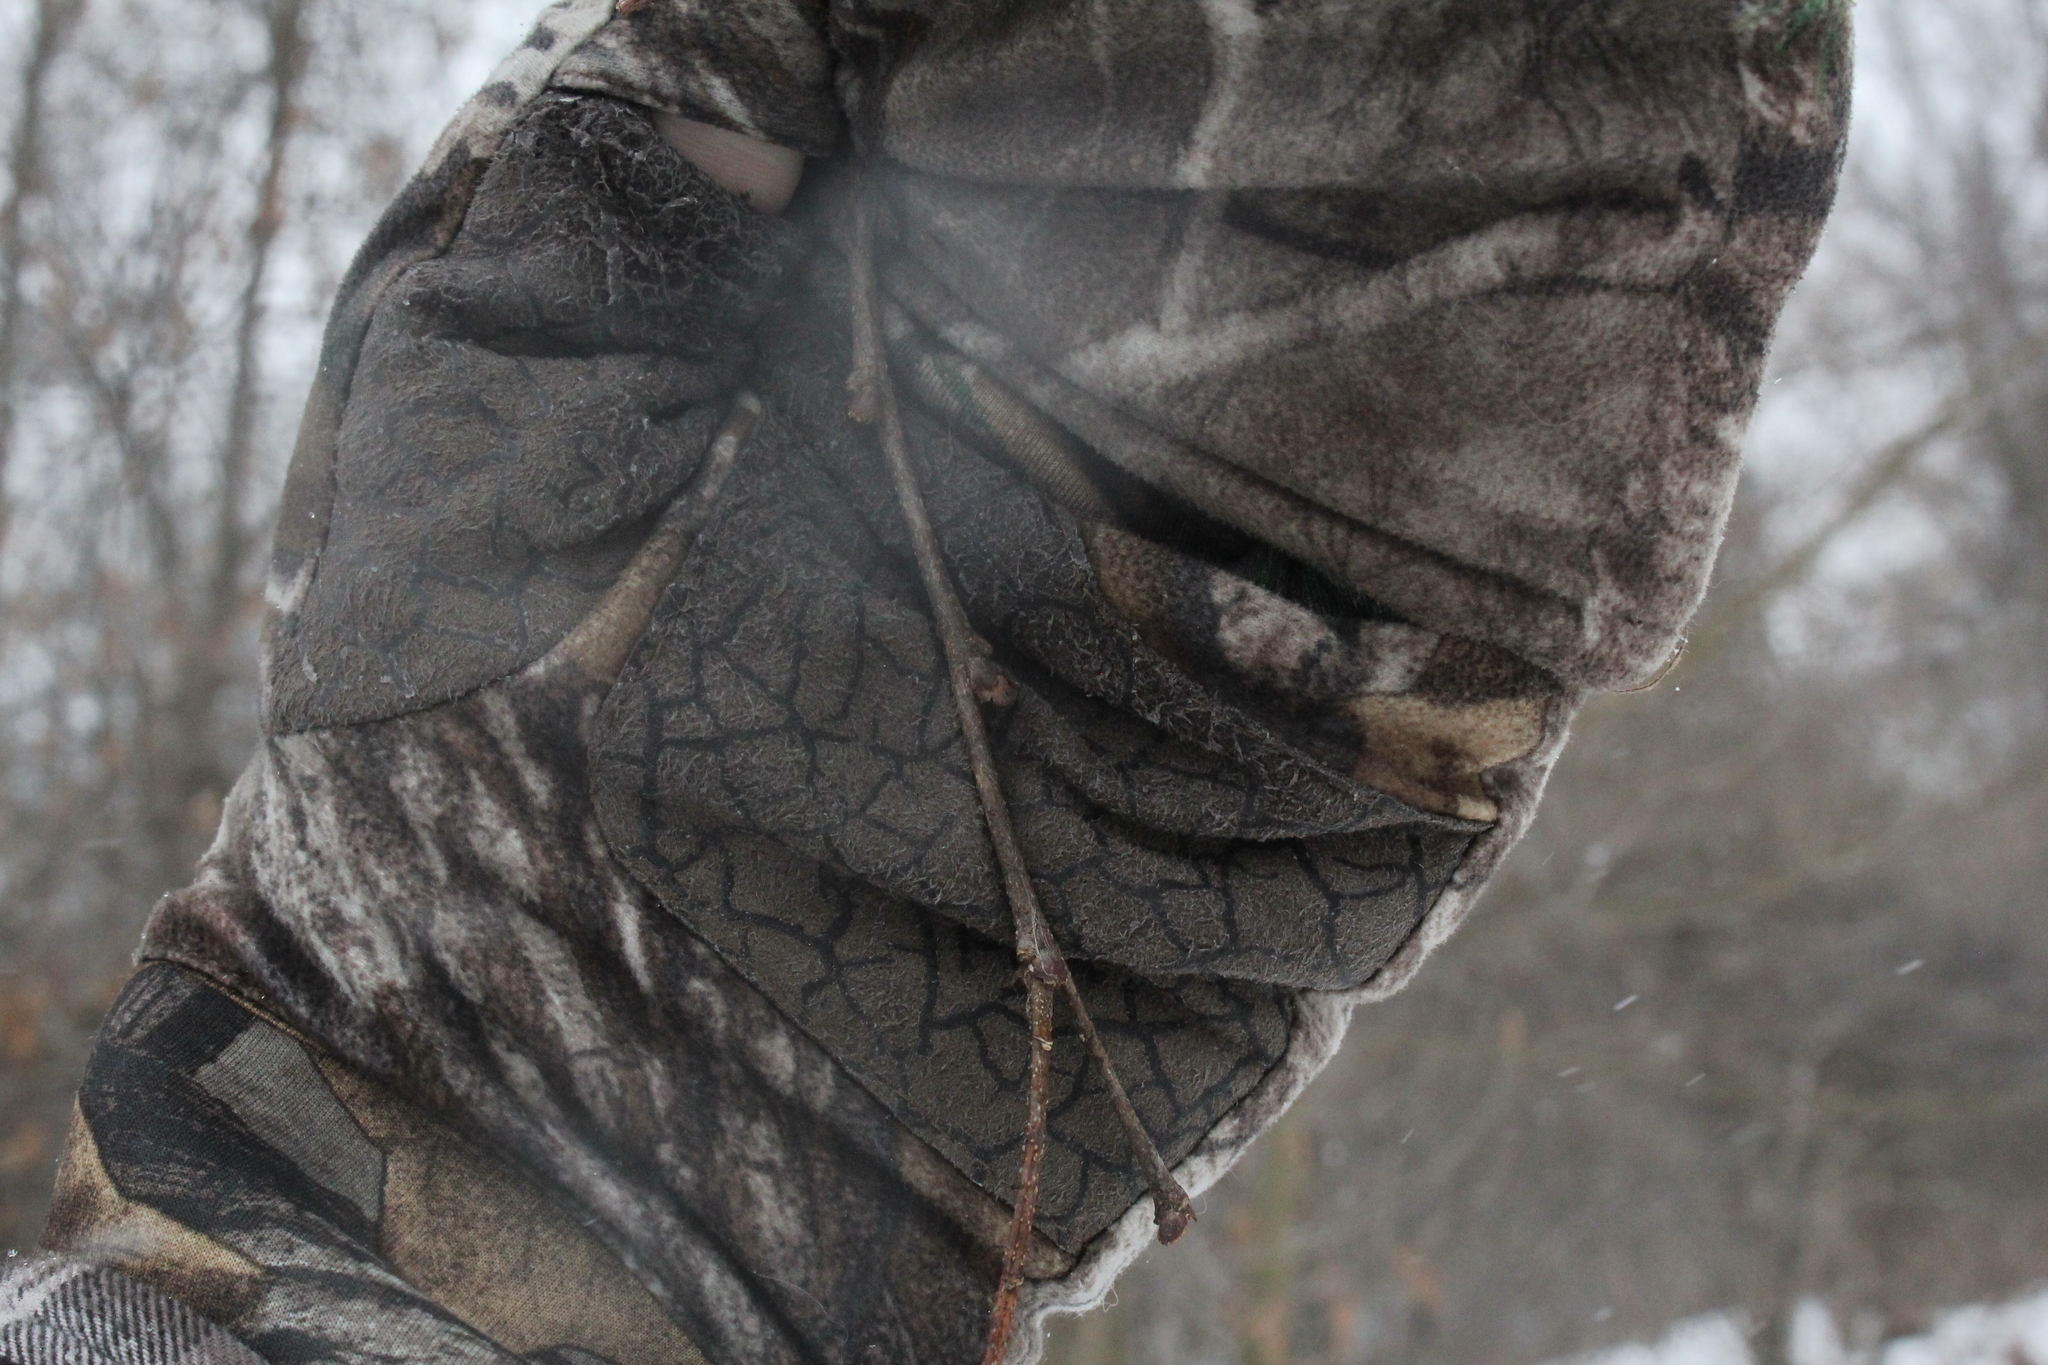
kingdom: Plantae
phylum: Tracheophyta
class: Magnoliopsida
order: Rosales
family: Cannabaceae
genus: Celtis
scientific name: Celtis occidentalis
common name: Common hackberry
